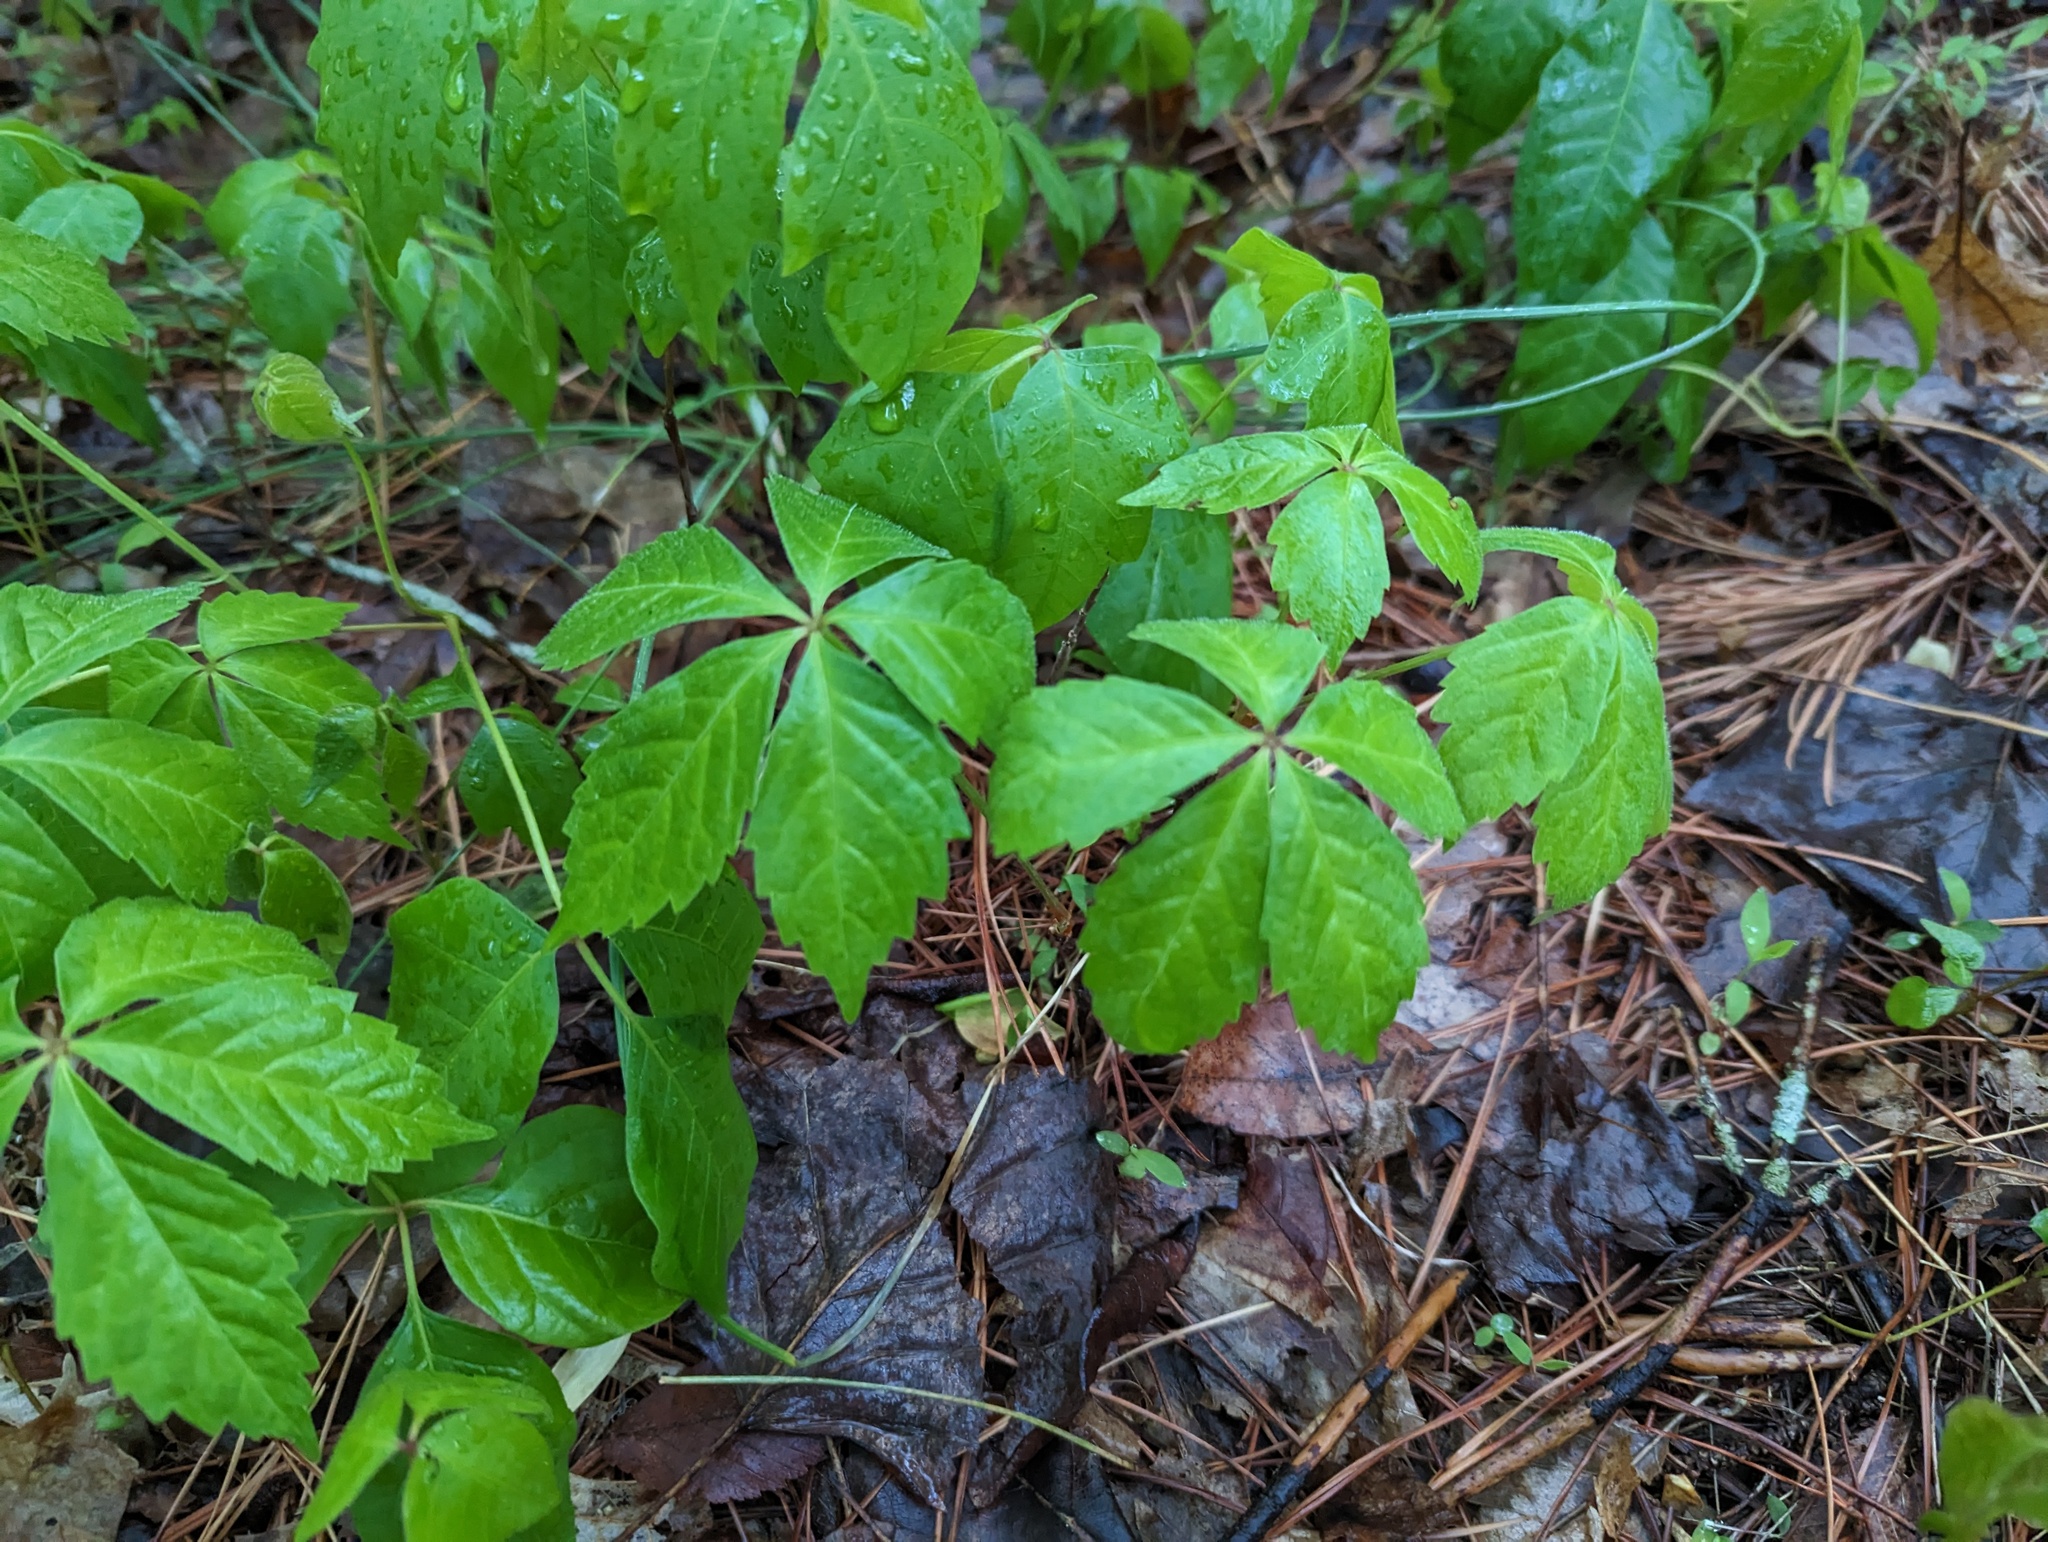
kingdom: Plantae
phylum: Tracheophyta
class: Magnoliopsida
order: Vitales
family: Vitaceae
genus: Parthenocissus
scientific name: Parthenocissus quinquefolia
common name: Virginia-creeper
